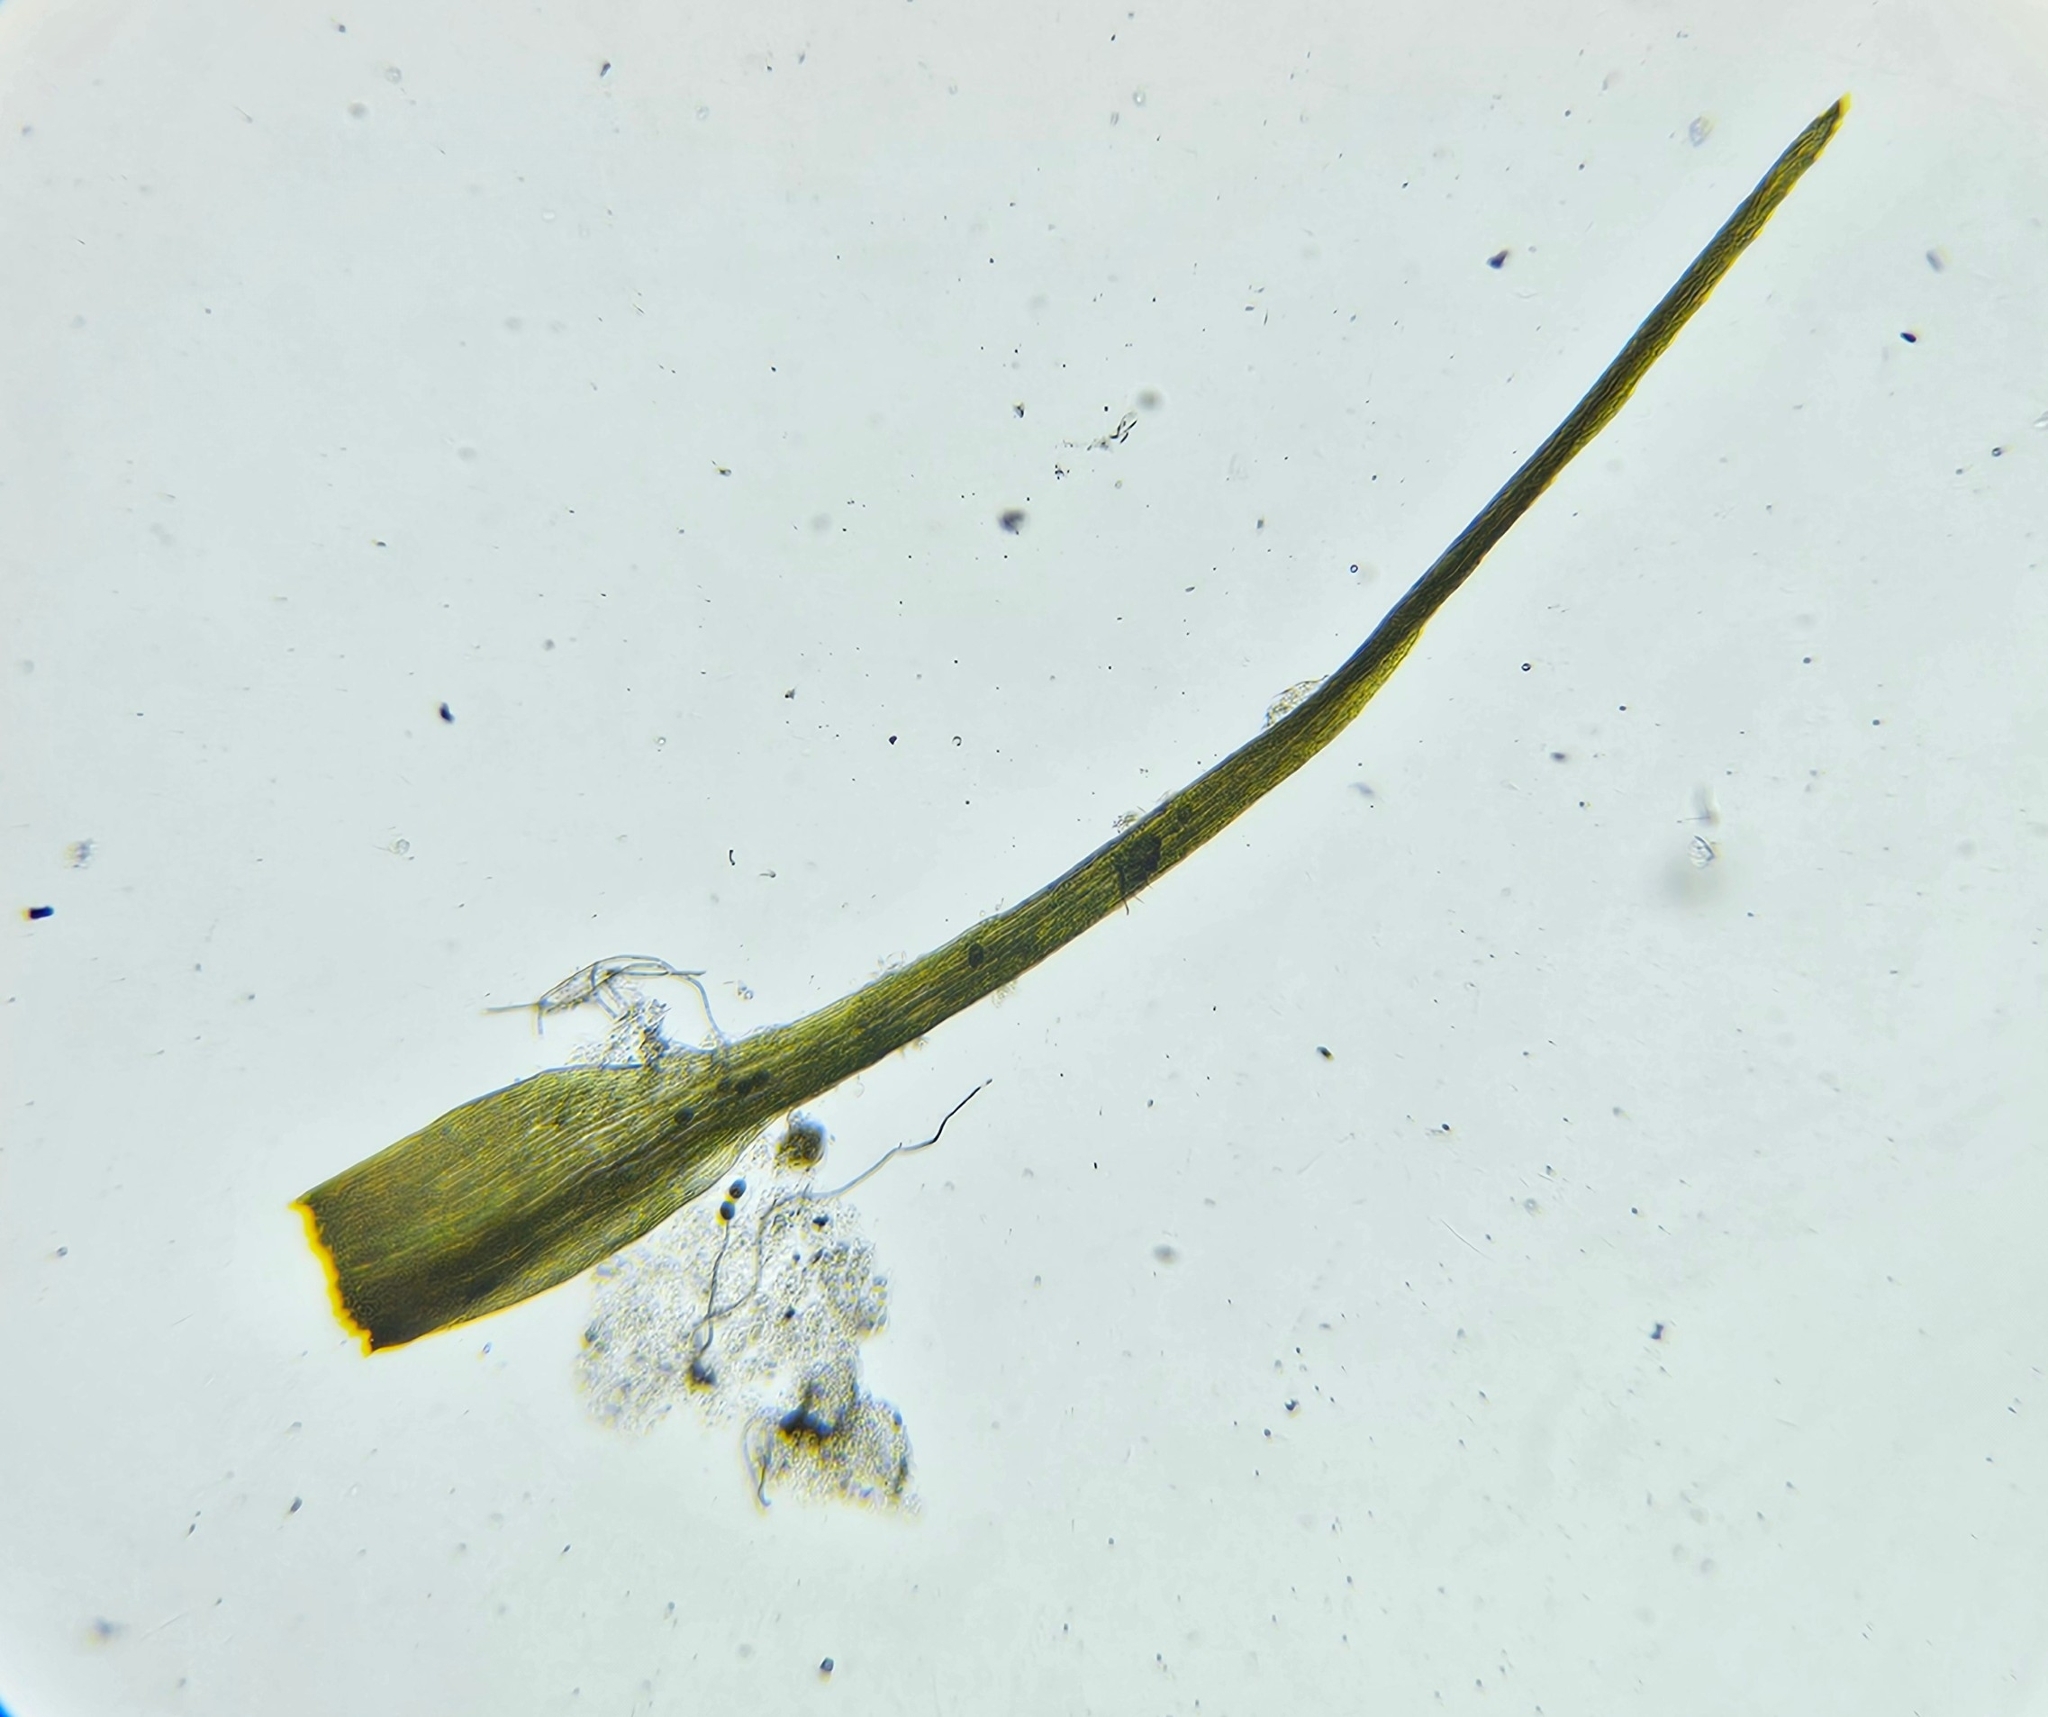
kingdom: Plantae
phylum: Bryophyta
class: Bryopsida
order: Dicranales
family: Leucobryaceae
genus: Campylopus
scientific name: Campylopus pyriformis
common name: Dwarf swan-neck moss
